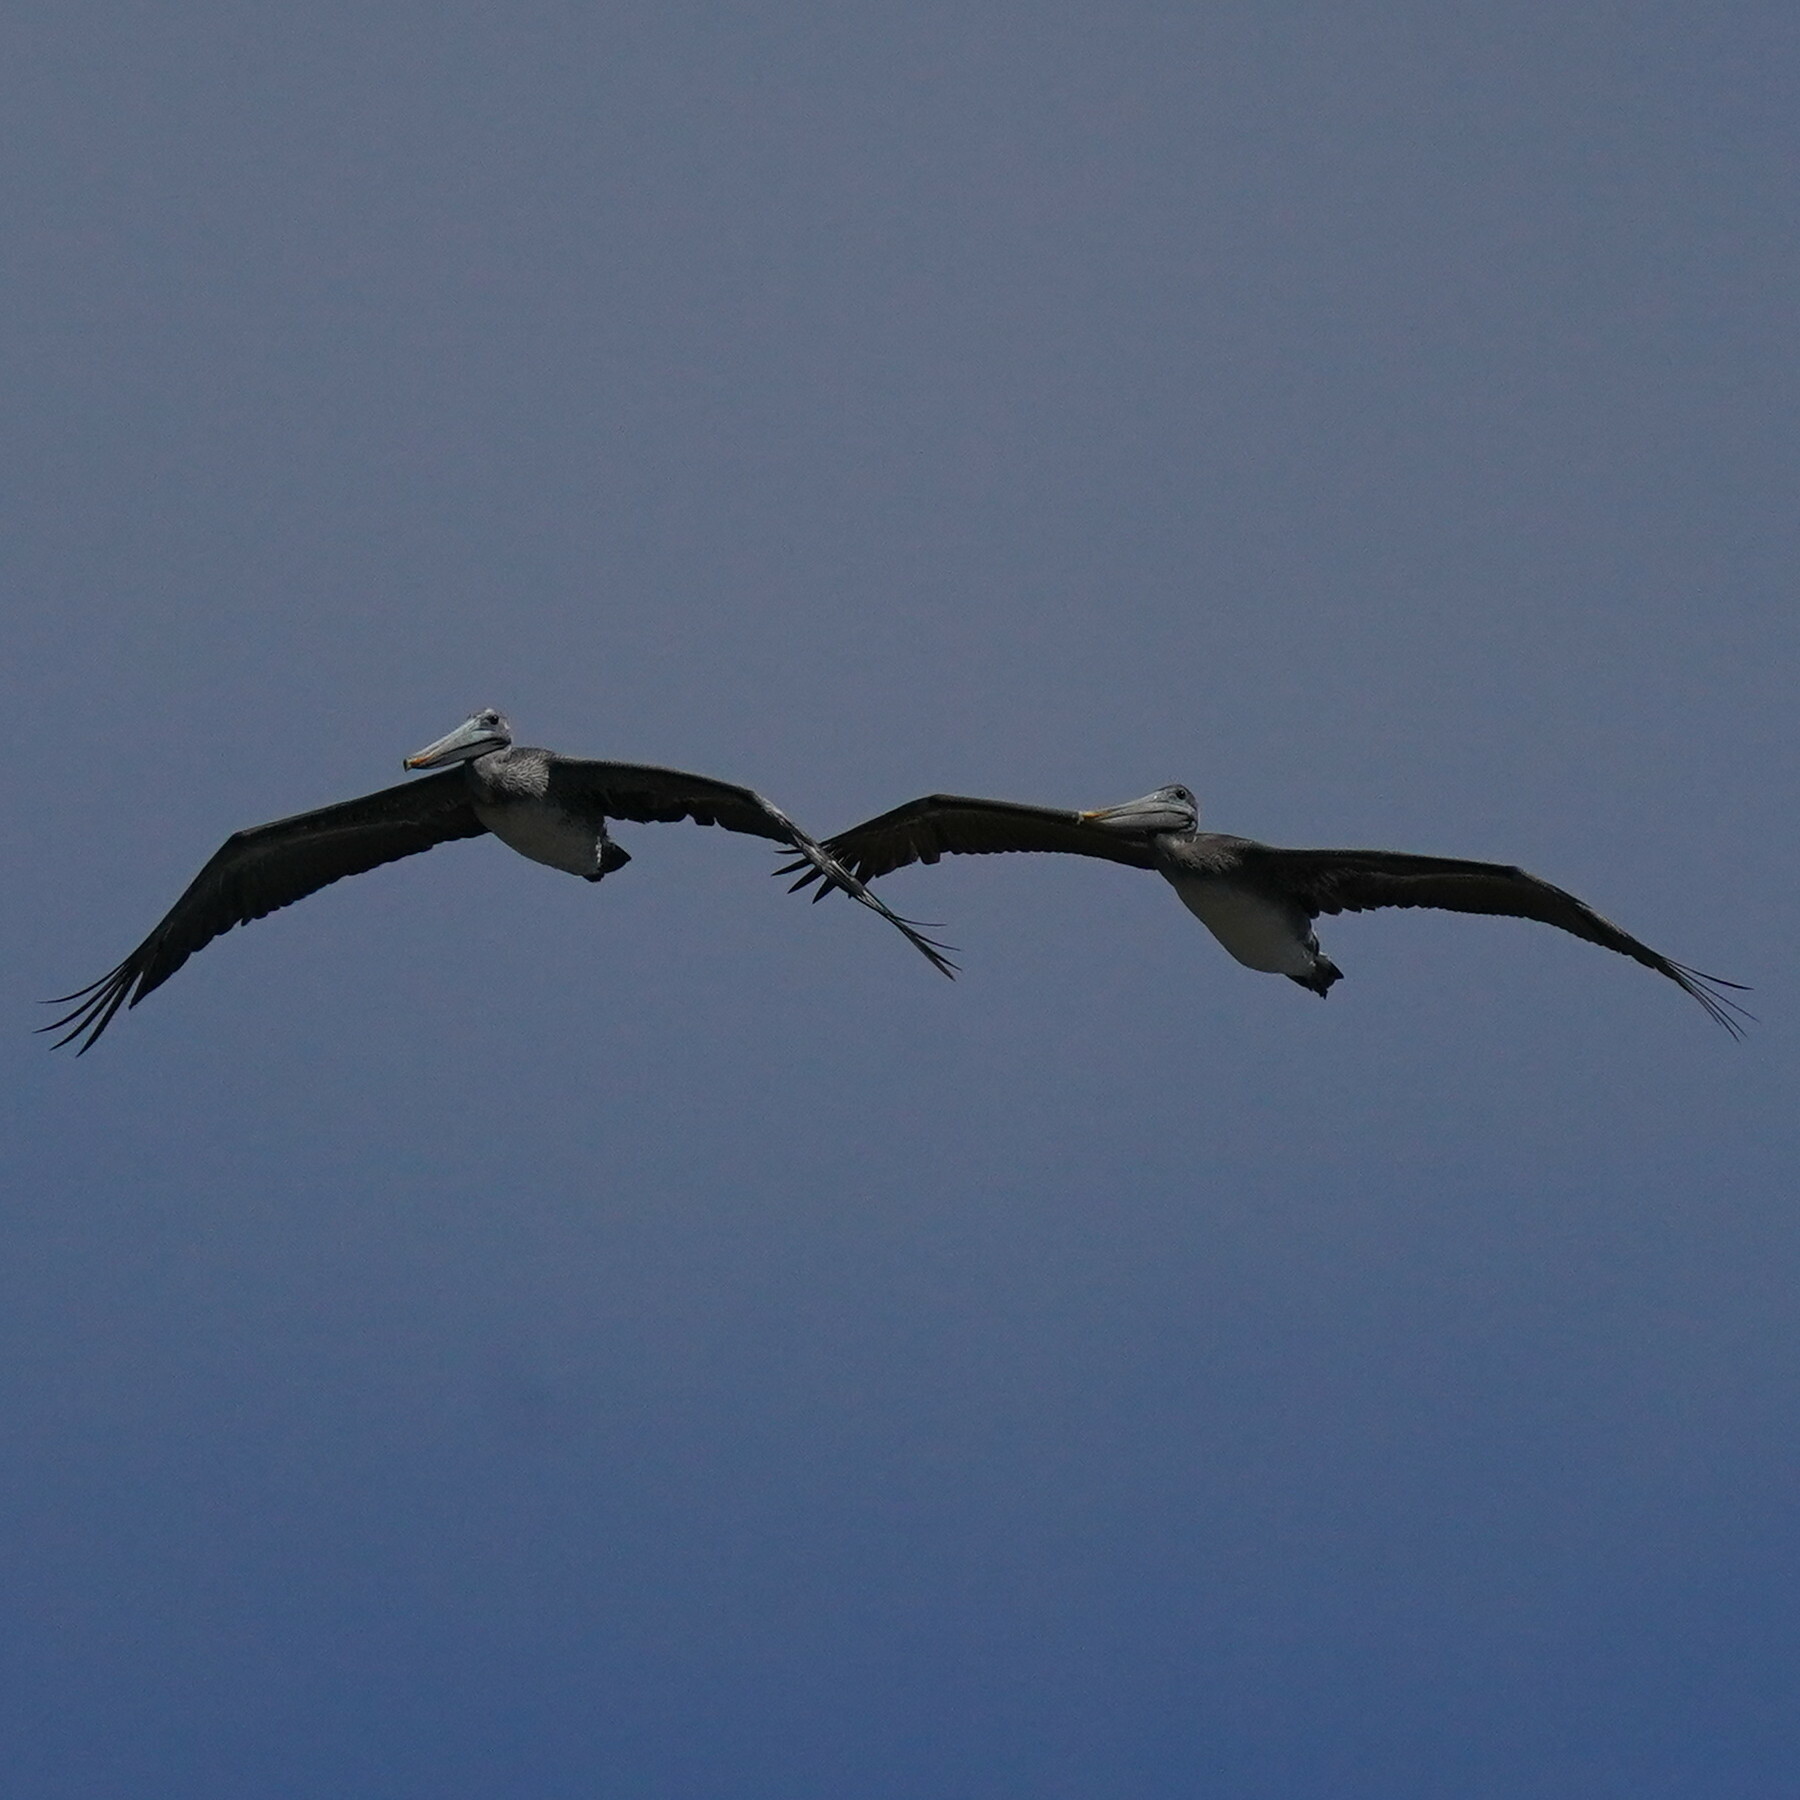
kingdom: Animalia
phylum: Chordata
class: Aves
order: Pelecaniformes
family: Pelecanidae
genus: Pelecanus
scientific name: Pelecanus occidentalis
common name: Brown pelican
